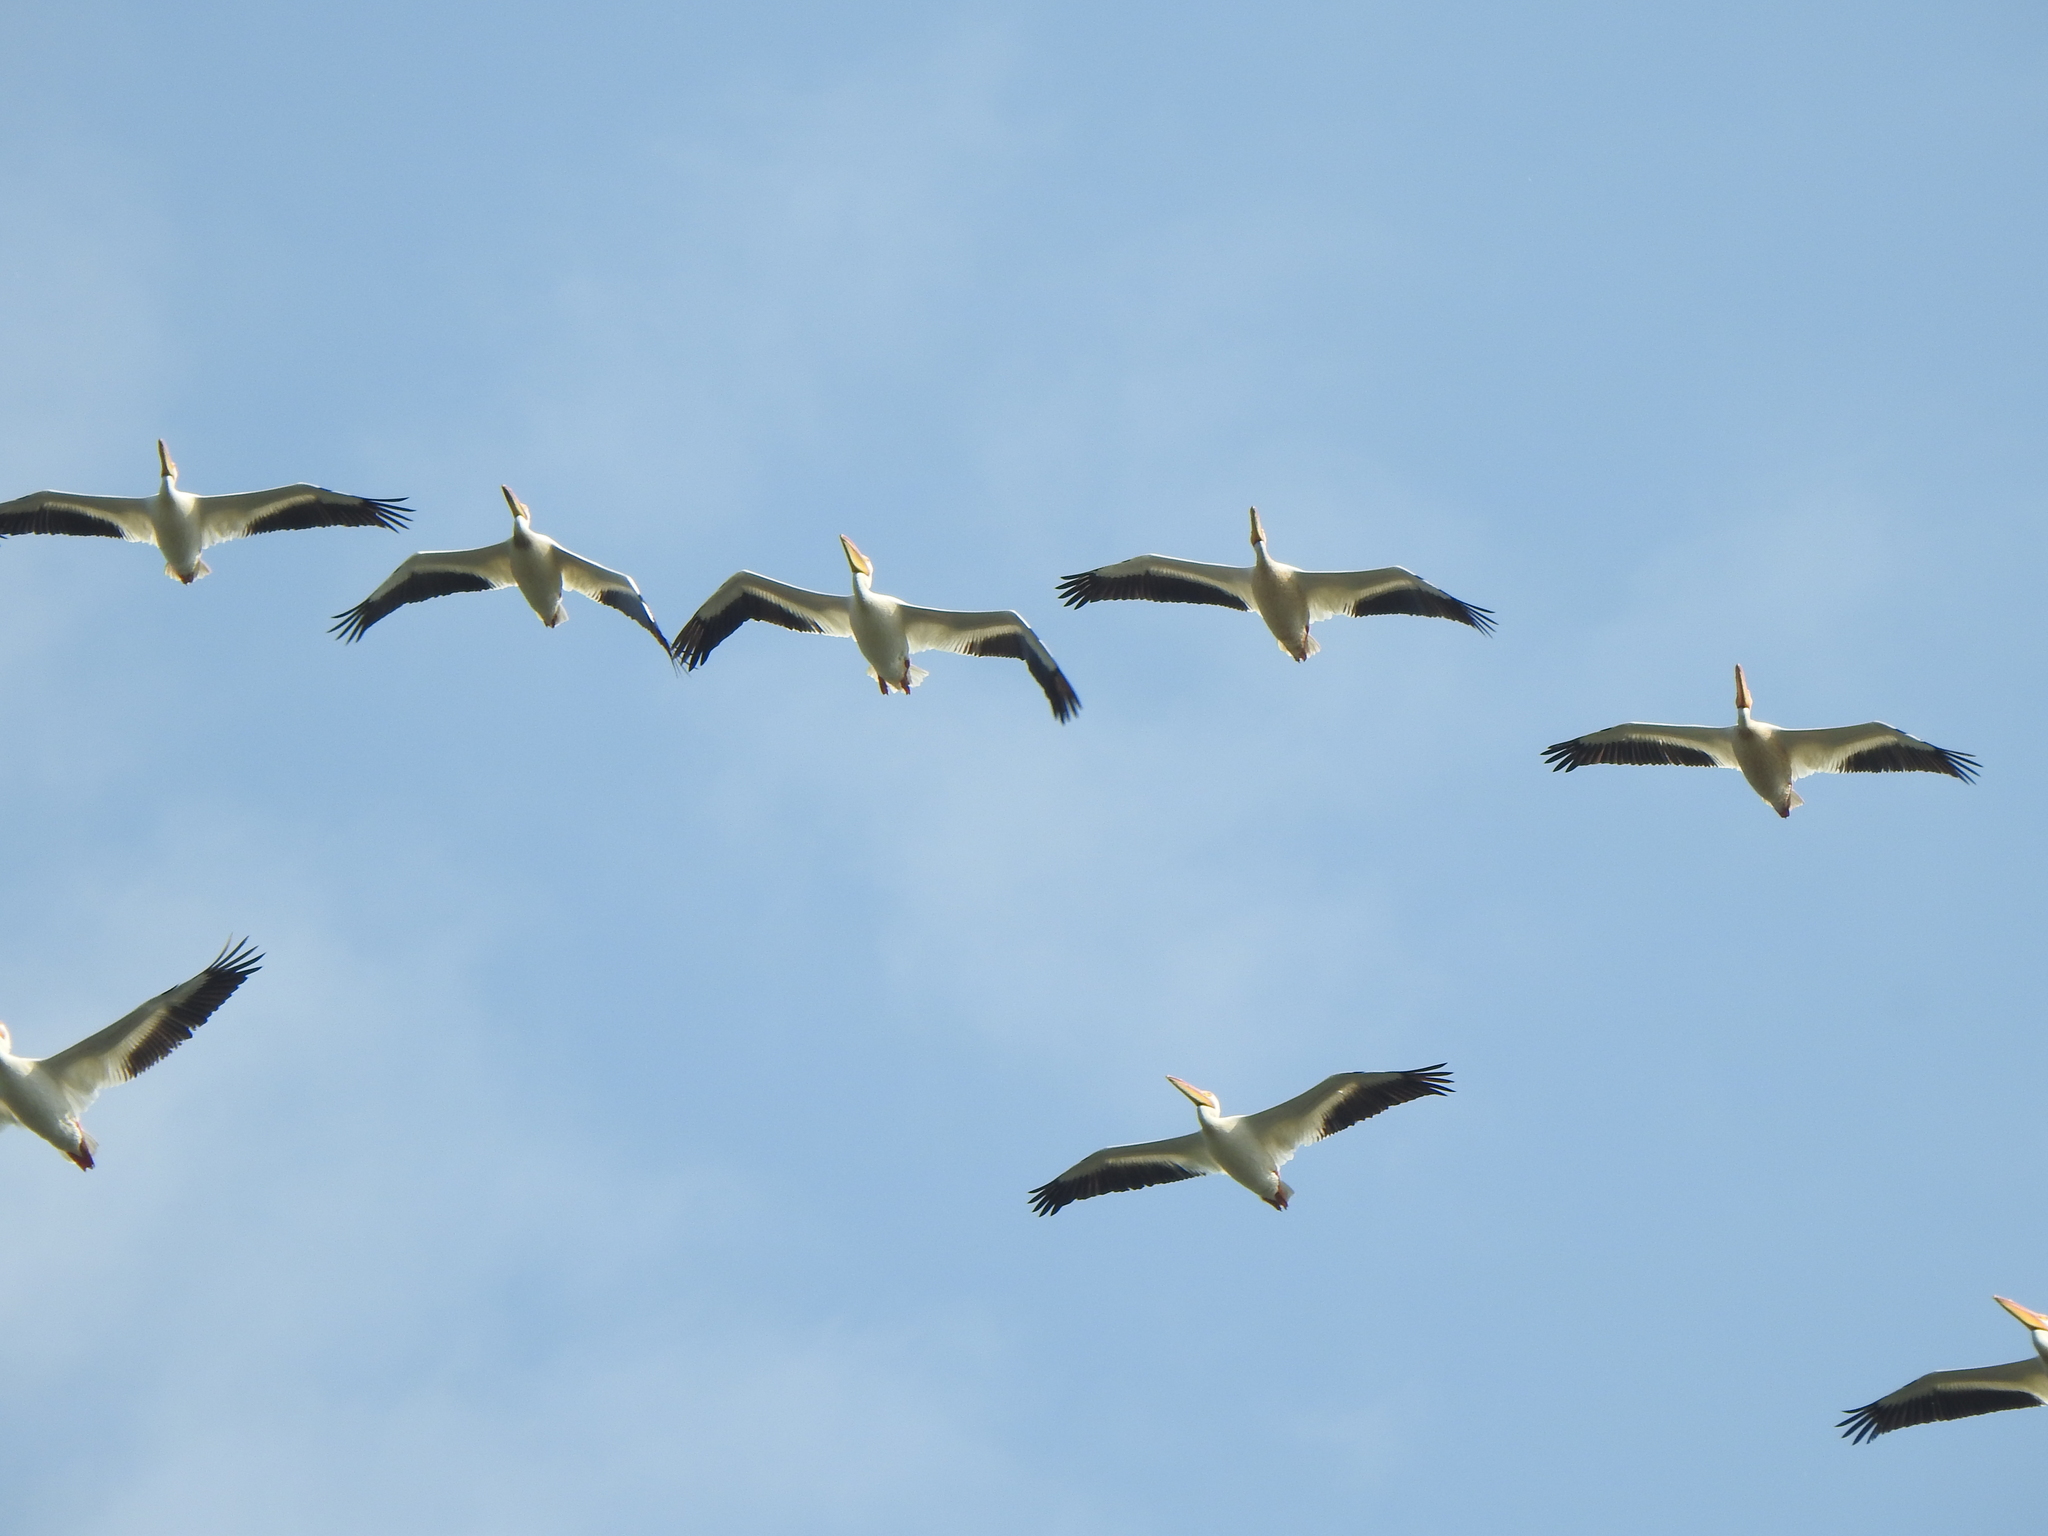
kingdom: Animalia
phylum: Chordata
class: Aves
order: Pelecaniformes
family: Pelecanidae
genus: Pelecanus
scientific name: Pelecanus erythrorhynchos
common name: American white pelican
